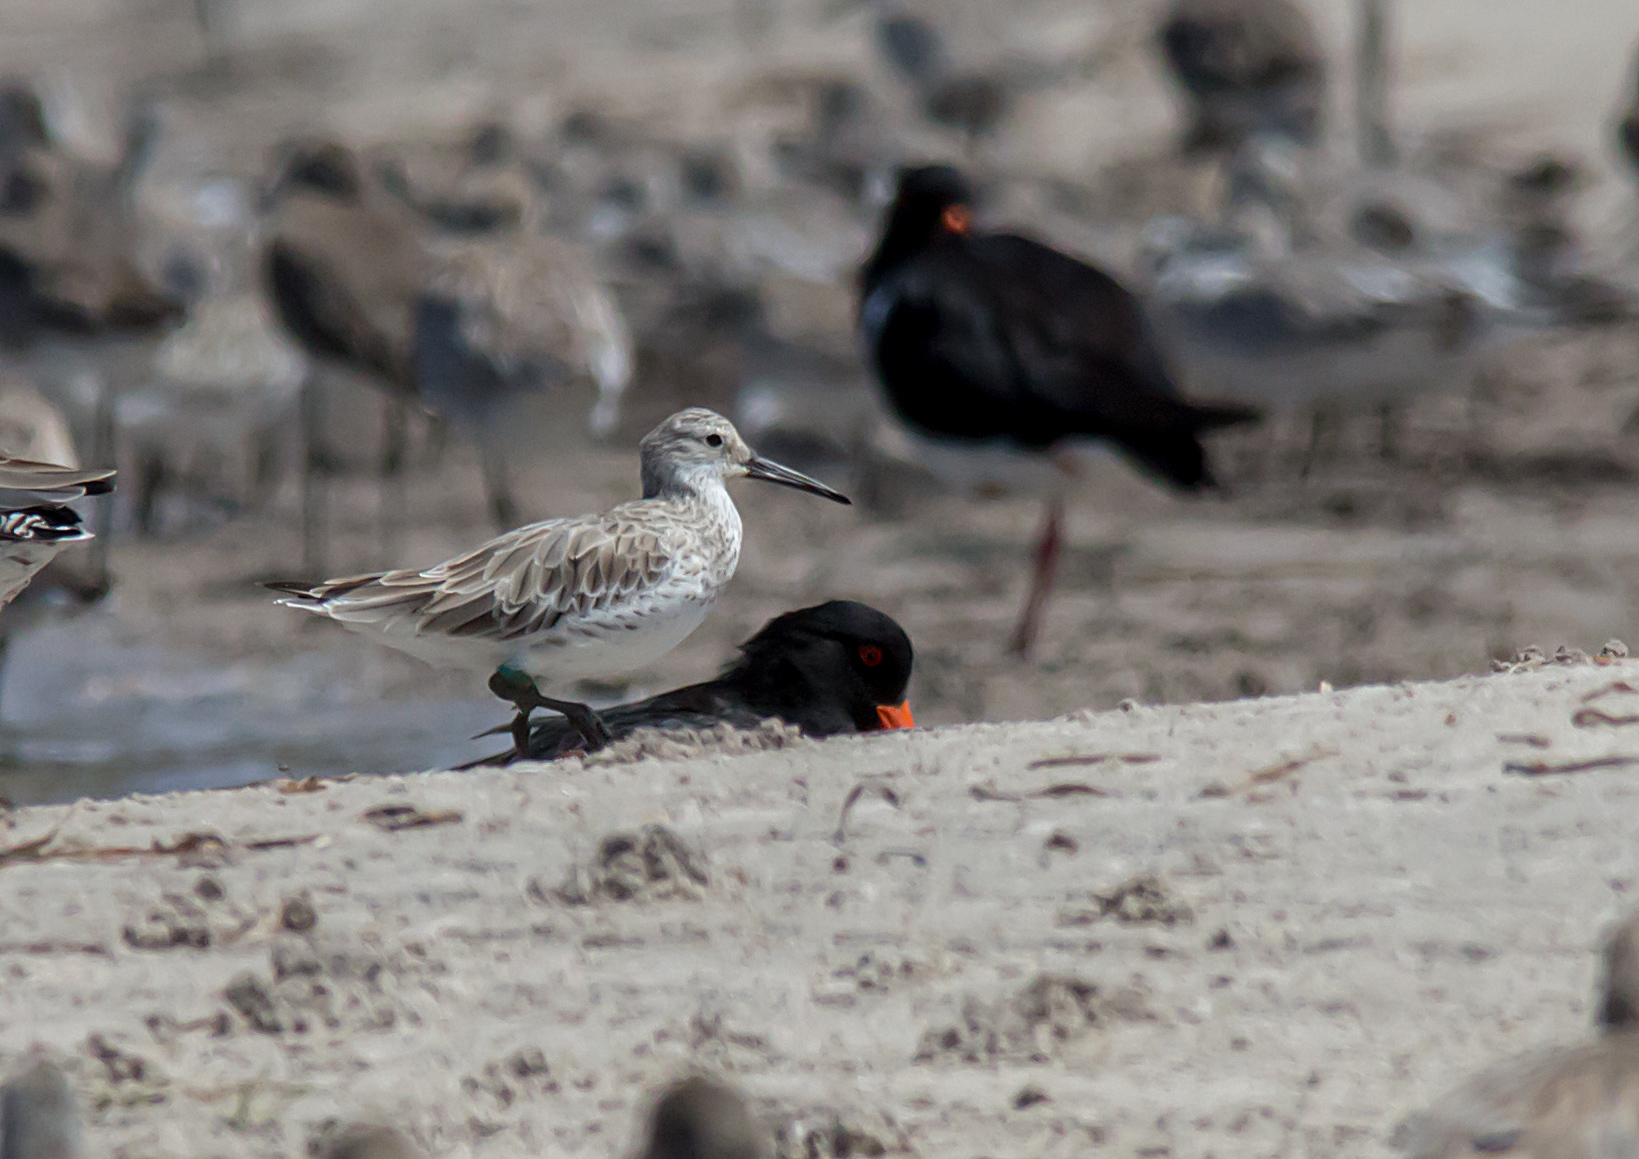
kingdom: Animalia
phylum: Chordata
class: Aves
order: Charadriiformes
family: Scolopacidae
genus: Calidris
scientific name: Calidris tenuirostris
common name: Great knot
